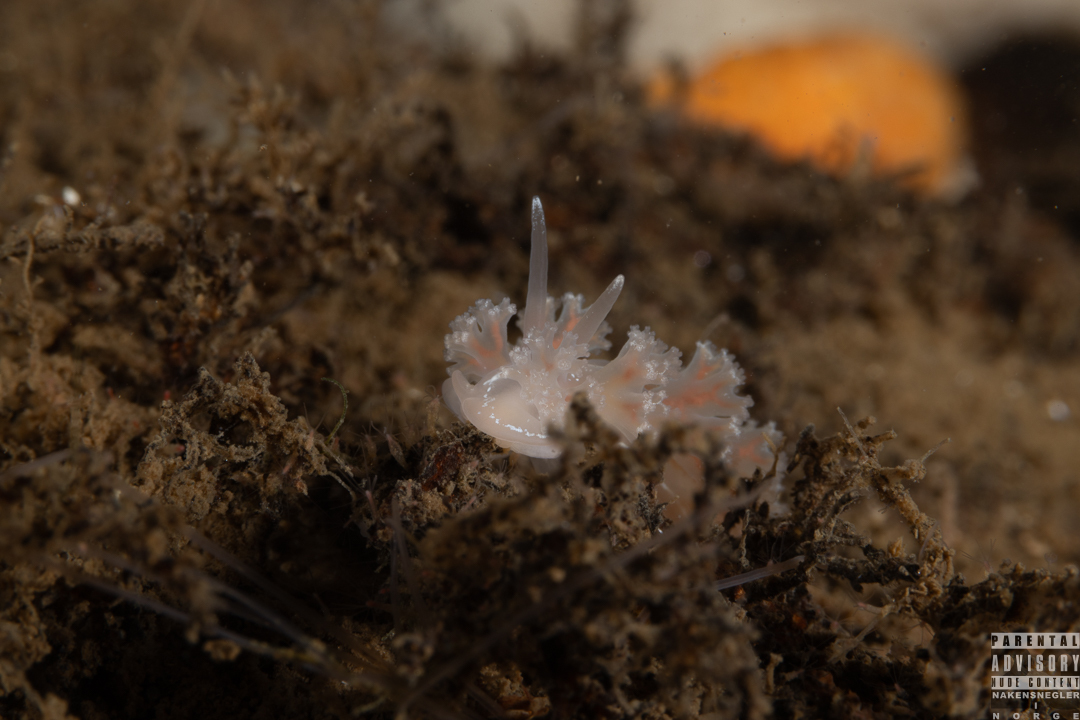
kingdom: Animalia
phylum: Mollusca
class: Gastropoda
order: Nudibranchia
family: Heroidae
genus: Hero
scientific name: Hero formosa
